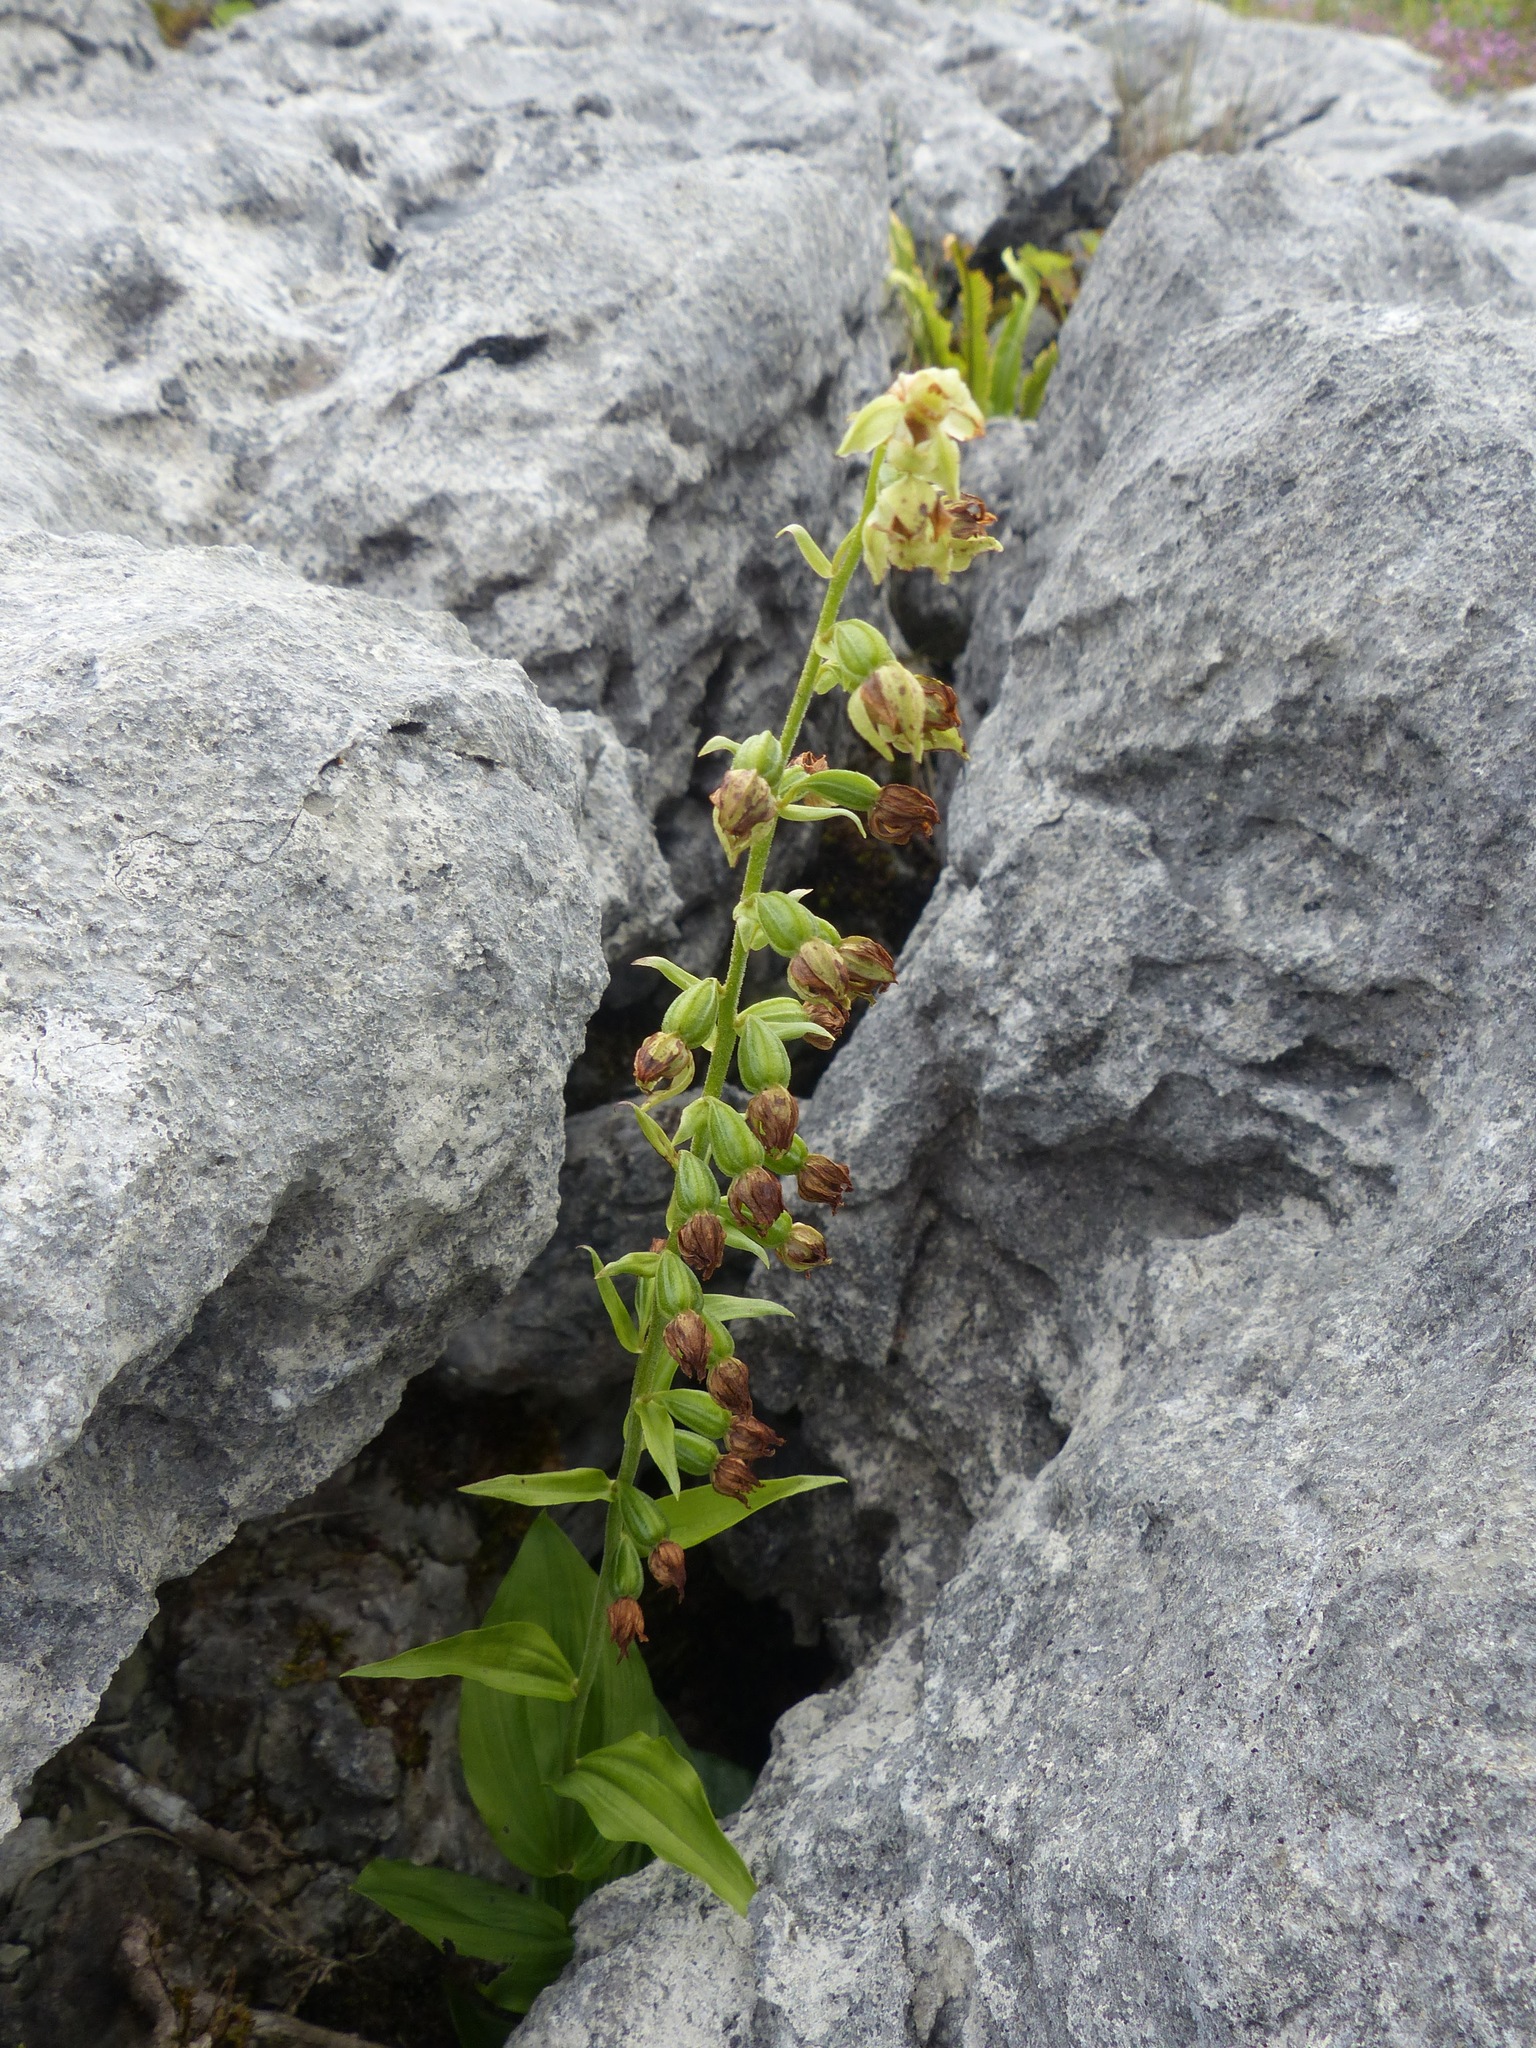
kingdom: Plantae
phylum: Tracheophyta
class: Liliopsida
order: Asparagales
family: Orchidaceae
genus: Epipactis
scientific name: Epipactis helleborine
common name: Broad-leaved helleborine
